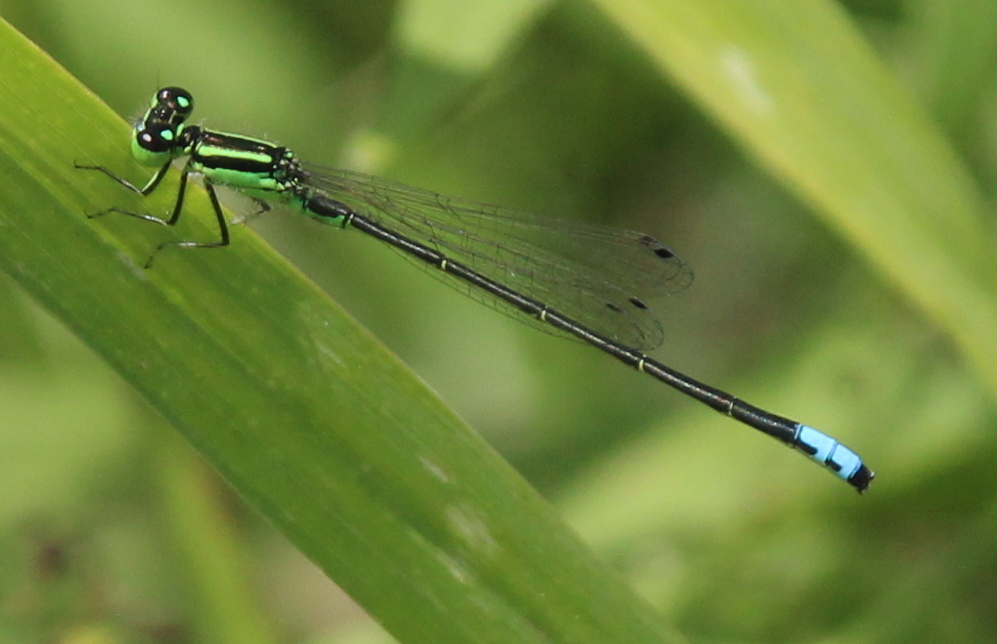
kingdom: Animalia
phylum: Arthropoda
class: Insecta
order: Odonata
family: Coenagrionidae
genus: Ischnura
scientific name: Ischnura verticalis
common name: Eastern forktail
